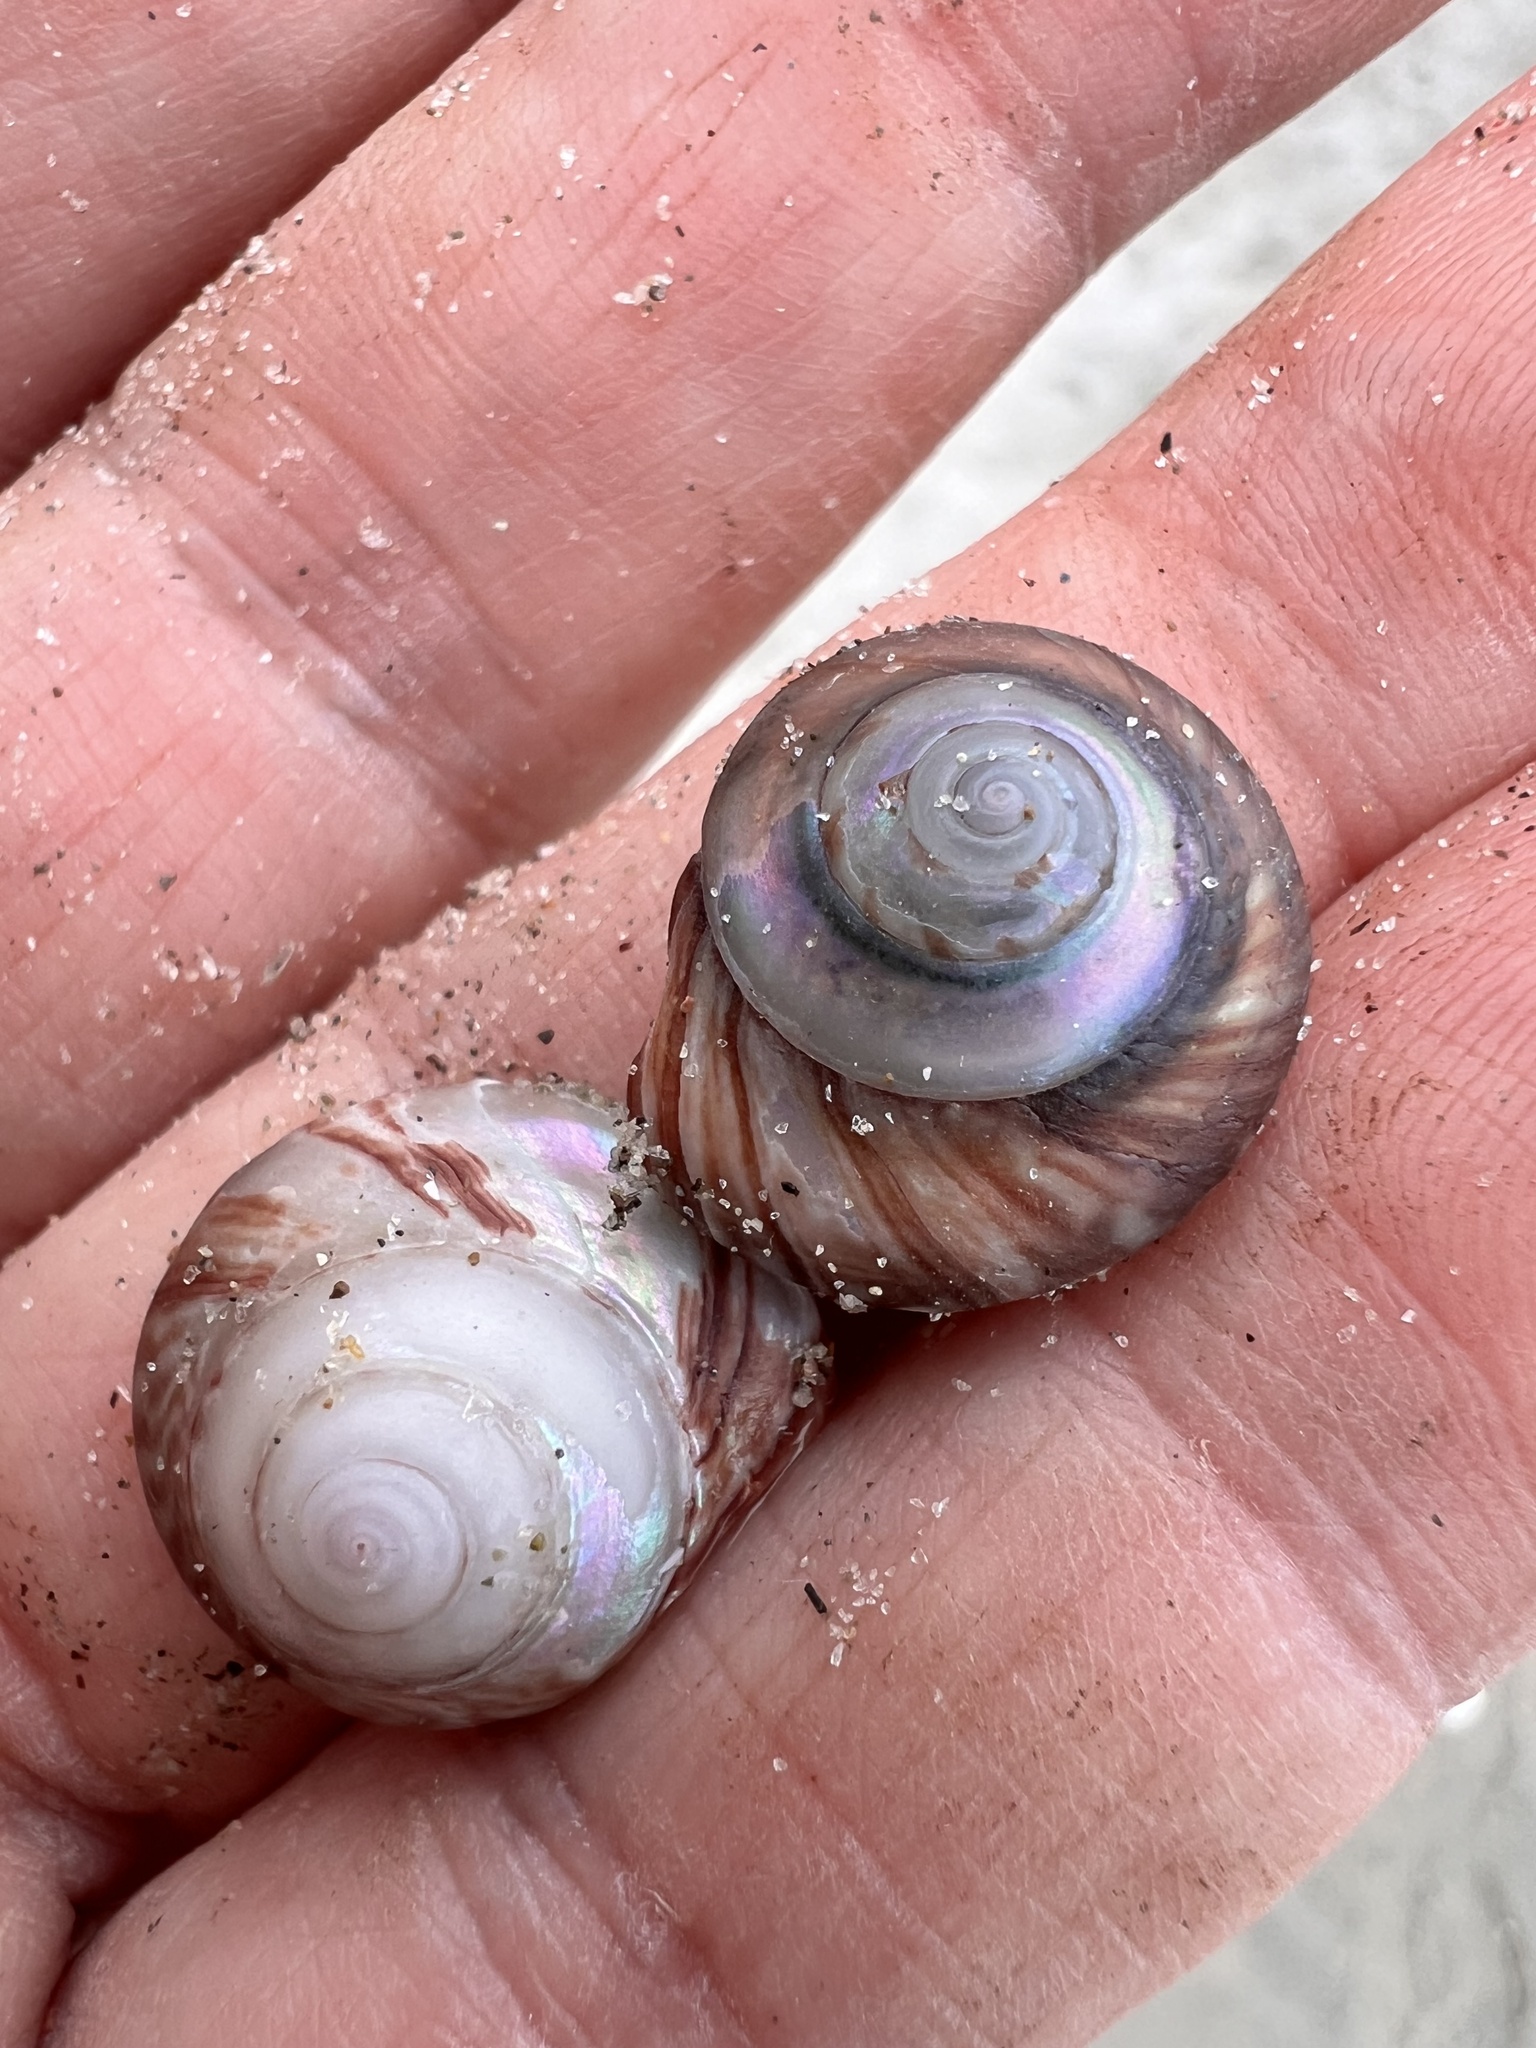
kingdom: Animalia
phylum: Mollusca
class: Gastropoda
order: Trochida
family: Trochidae
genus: Zethalia
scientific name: Zethalia zelandica
